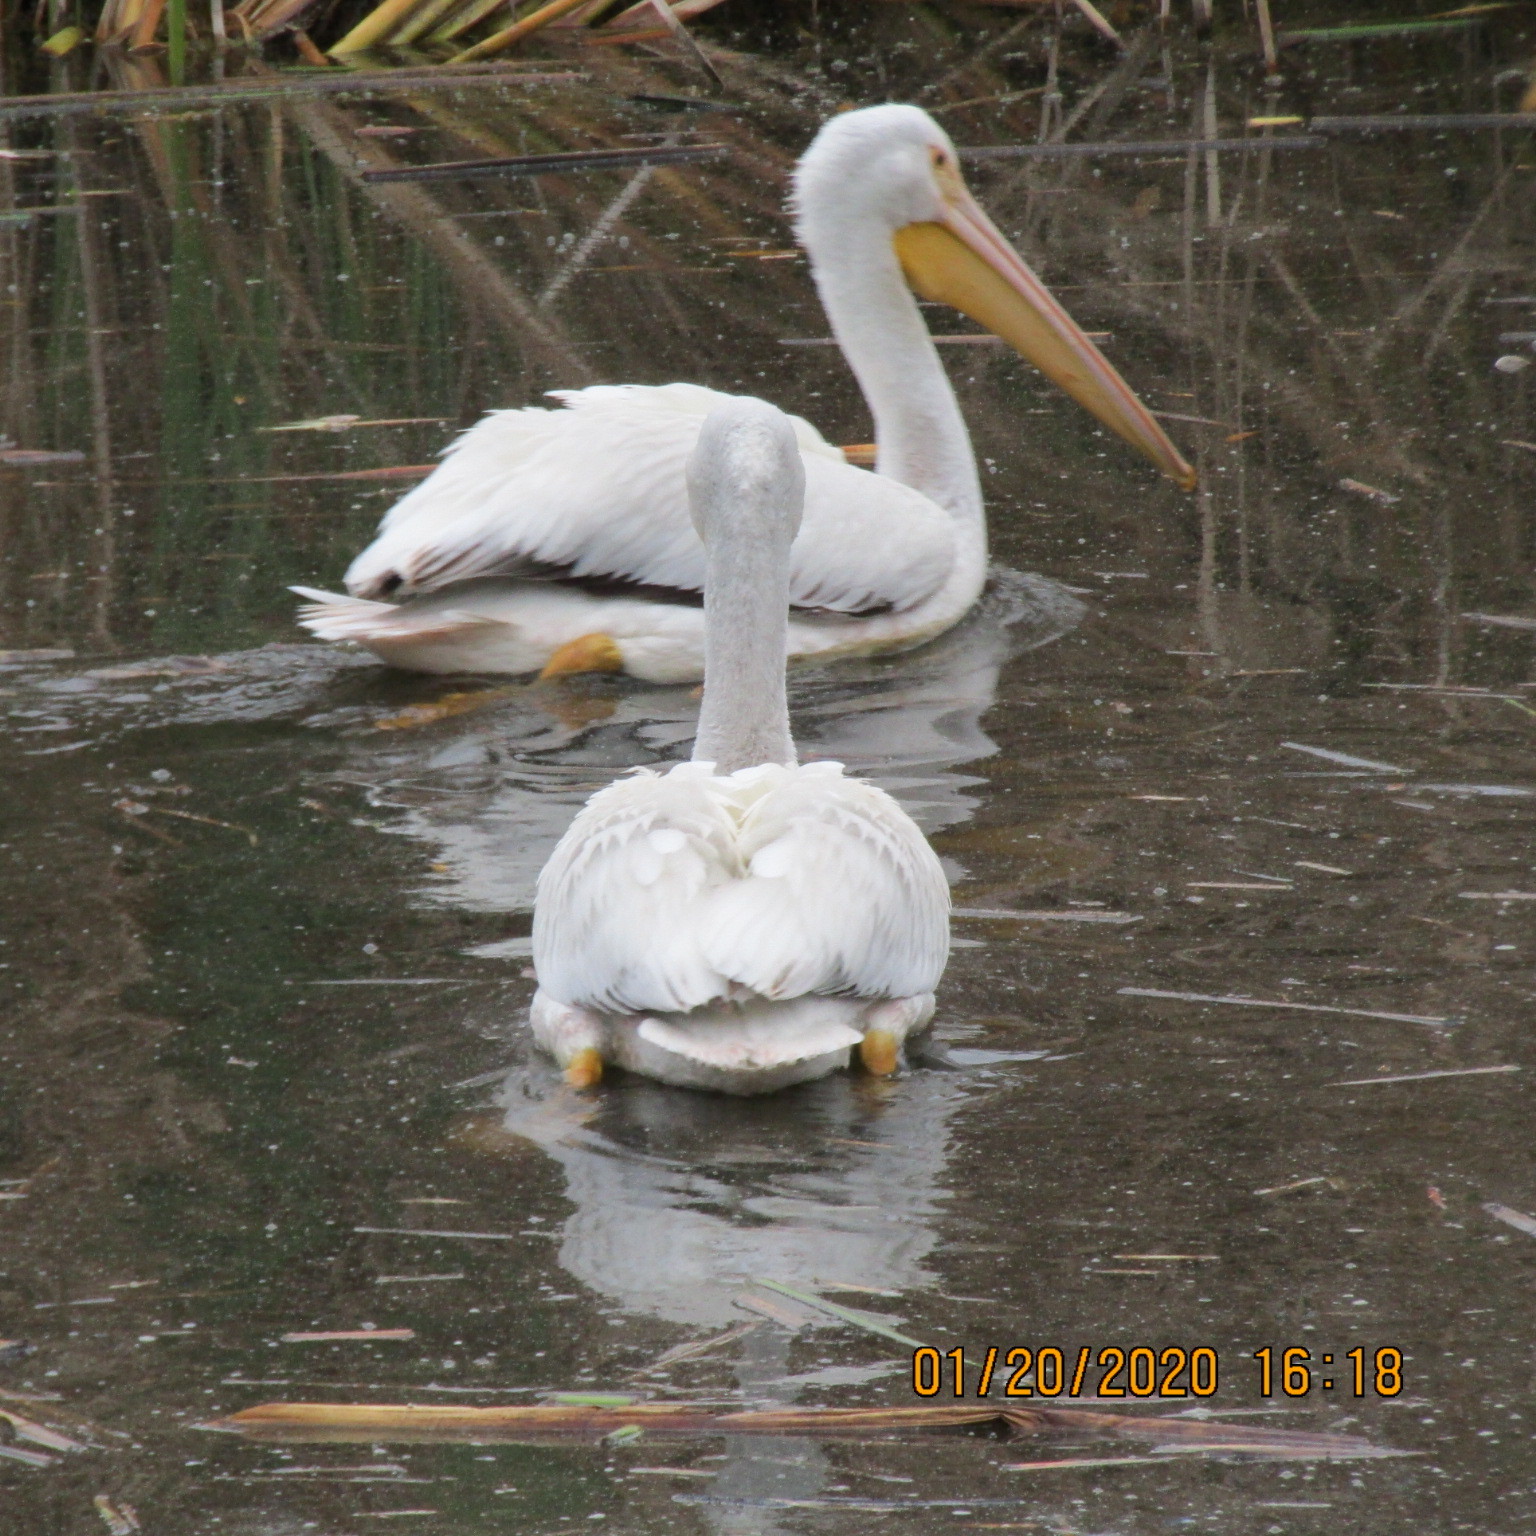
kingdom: Animalia
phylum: Chordata
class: Aves
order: Pelecaniformes
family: Pelecanidae
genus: Pelecanus
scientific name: Pelecanus erythrorhynchos
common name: American white pelican
